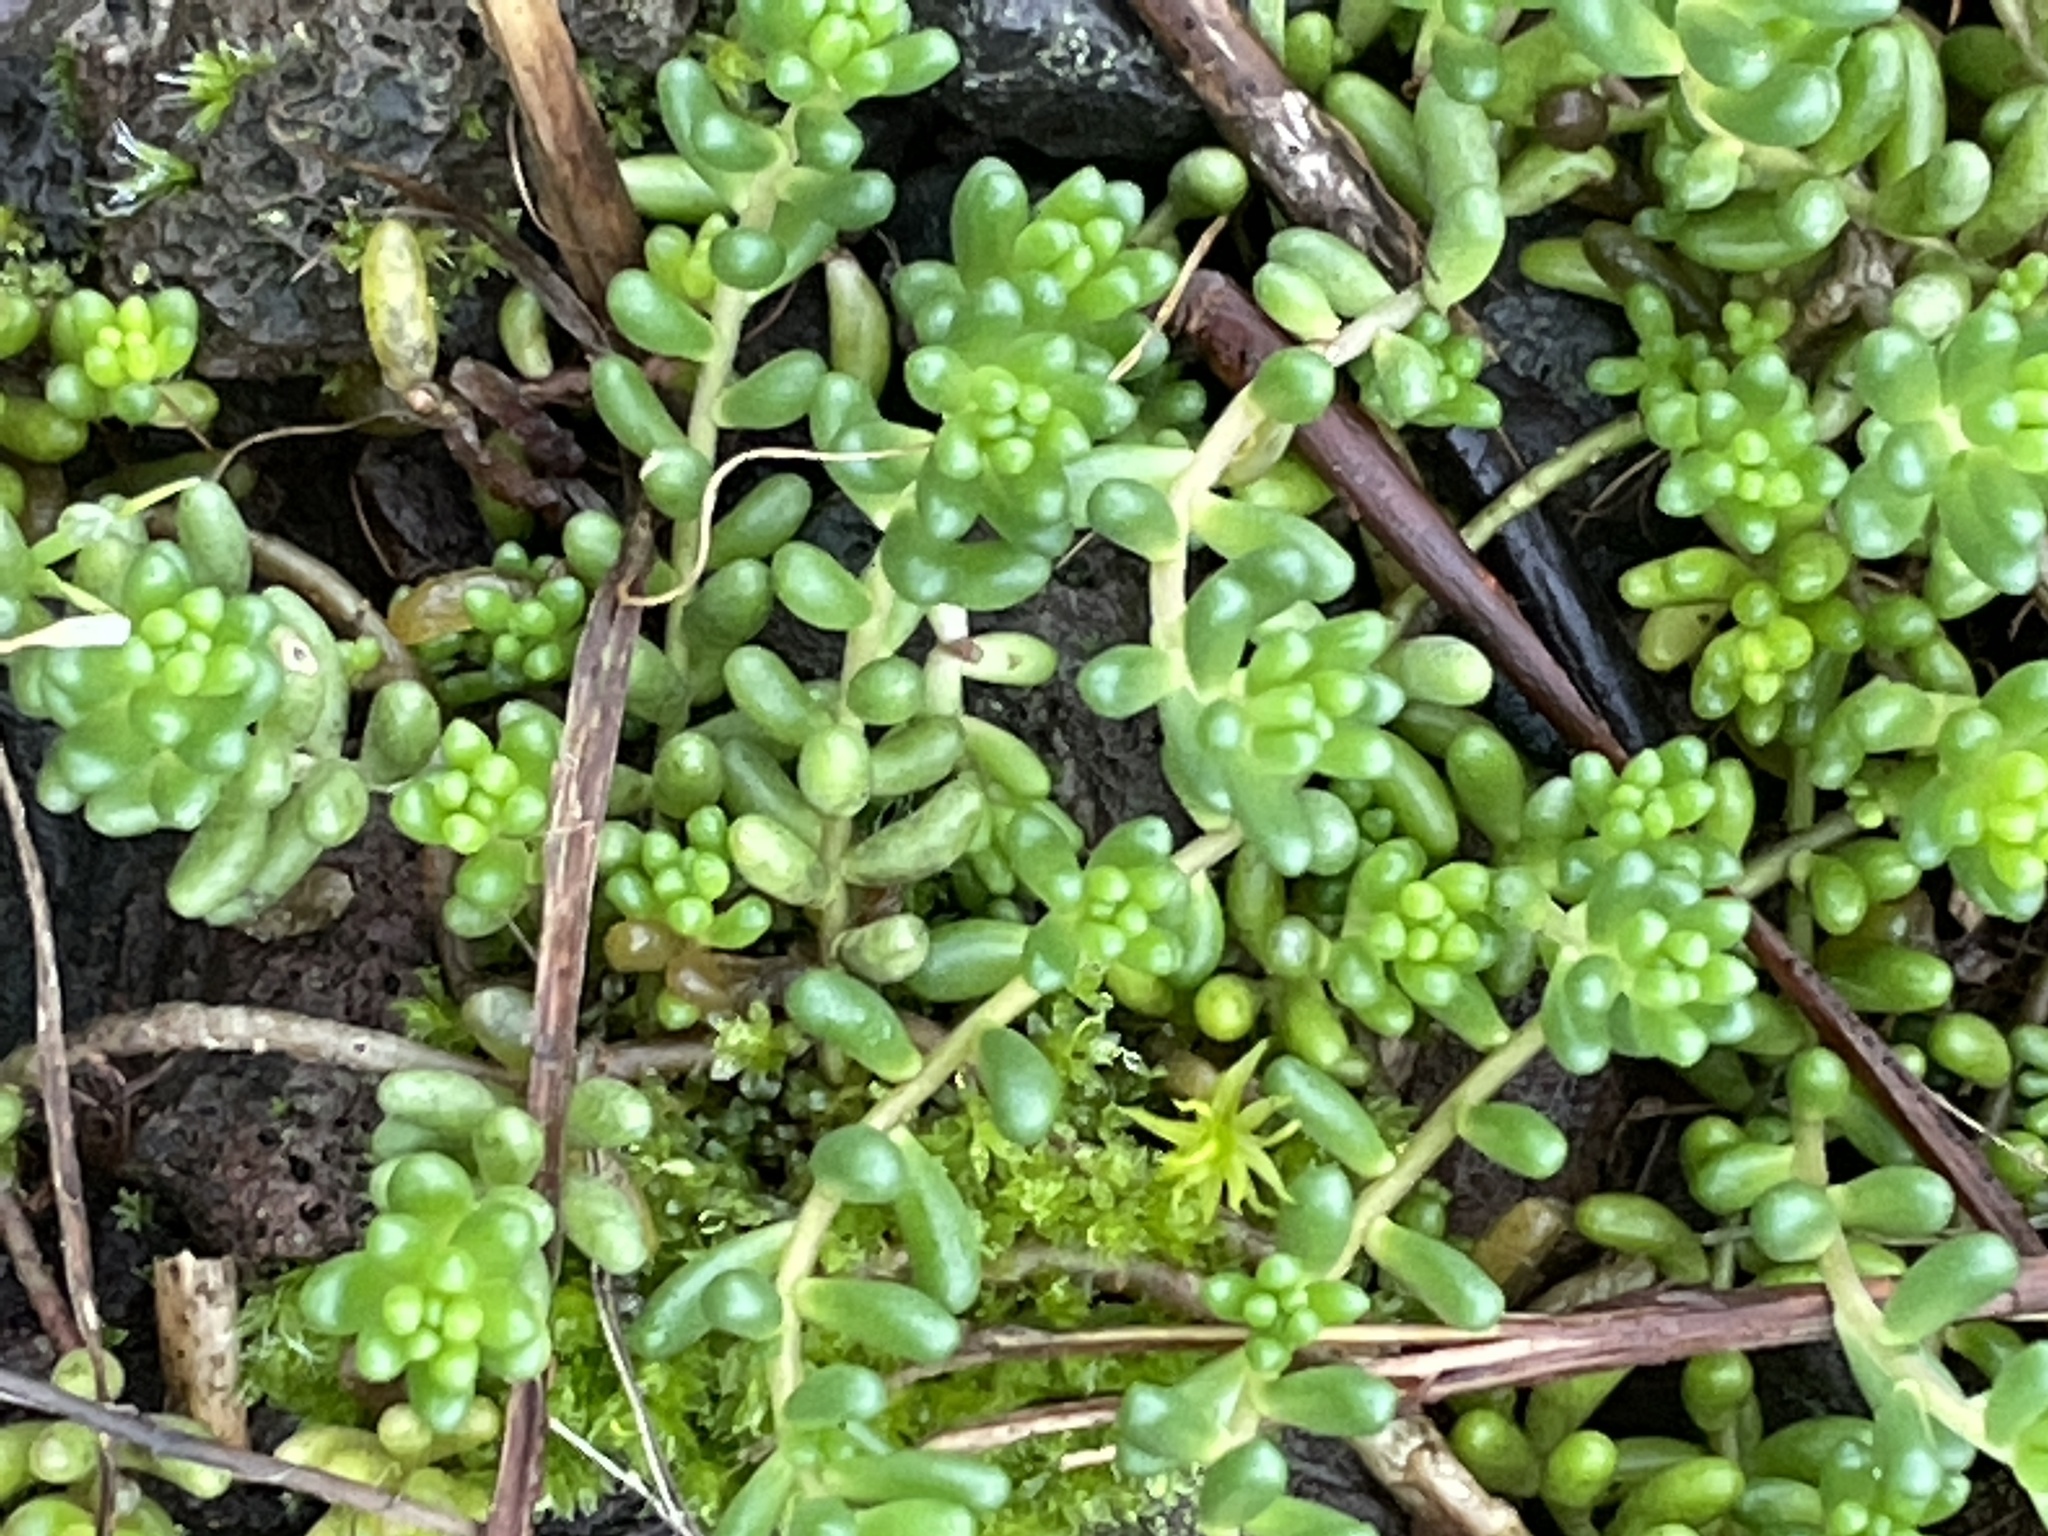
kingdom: Plantae
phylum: Tracheophyta
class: Magnoliopsida
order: Saxifragales
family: Crassulaceae
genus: Sedum
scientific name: Sedum album
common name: White stonecrop
